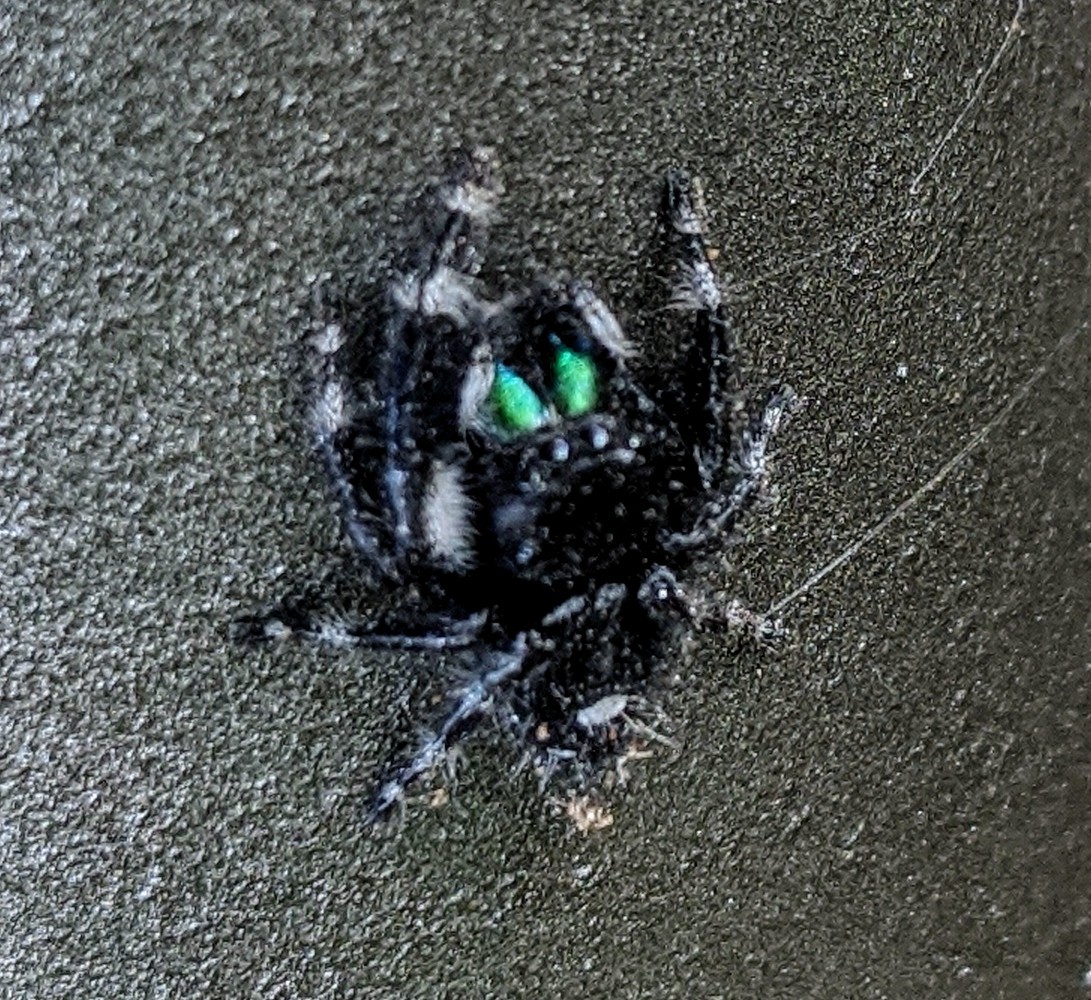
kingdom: Animalia
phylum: Arthropoda
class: Arachnida
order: Araneae
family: Salticidae
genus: Phidippus
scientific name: Phidippus audax
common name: Bold jumper
